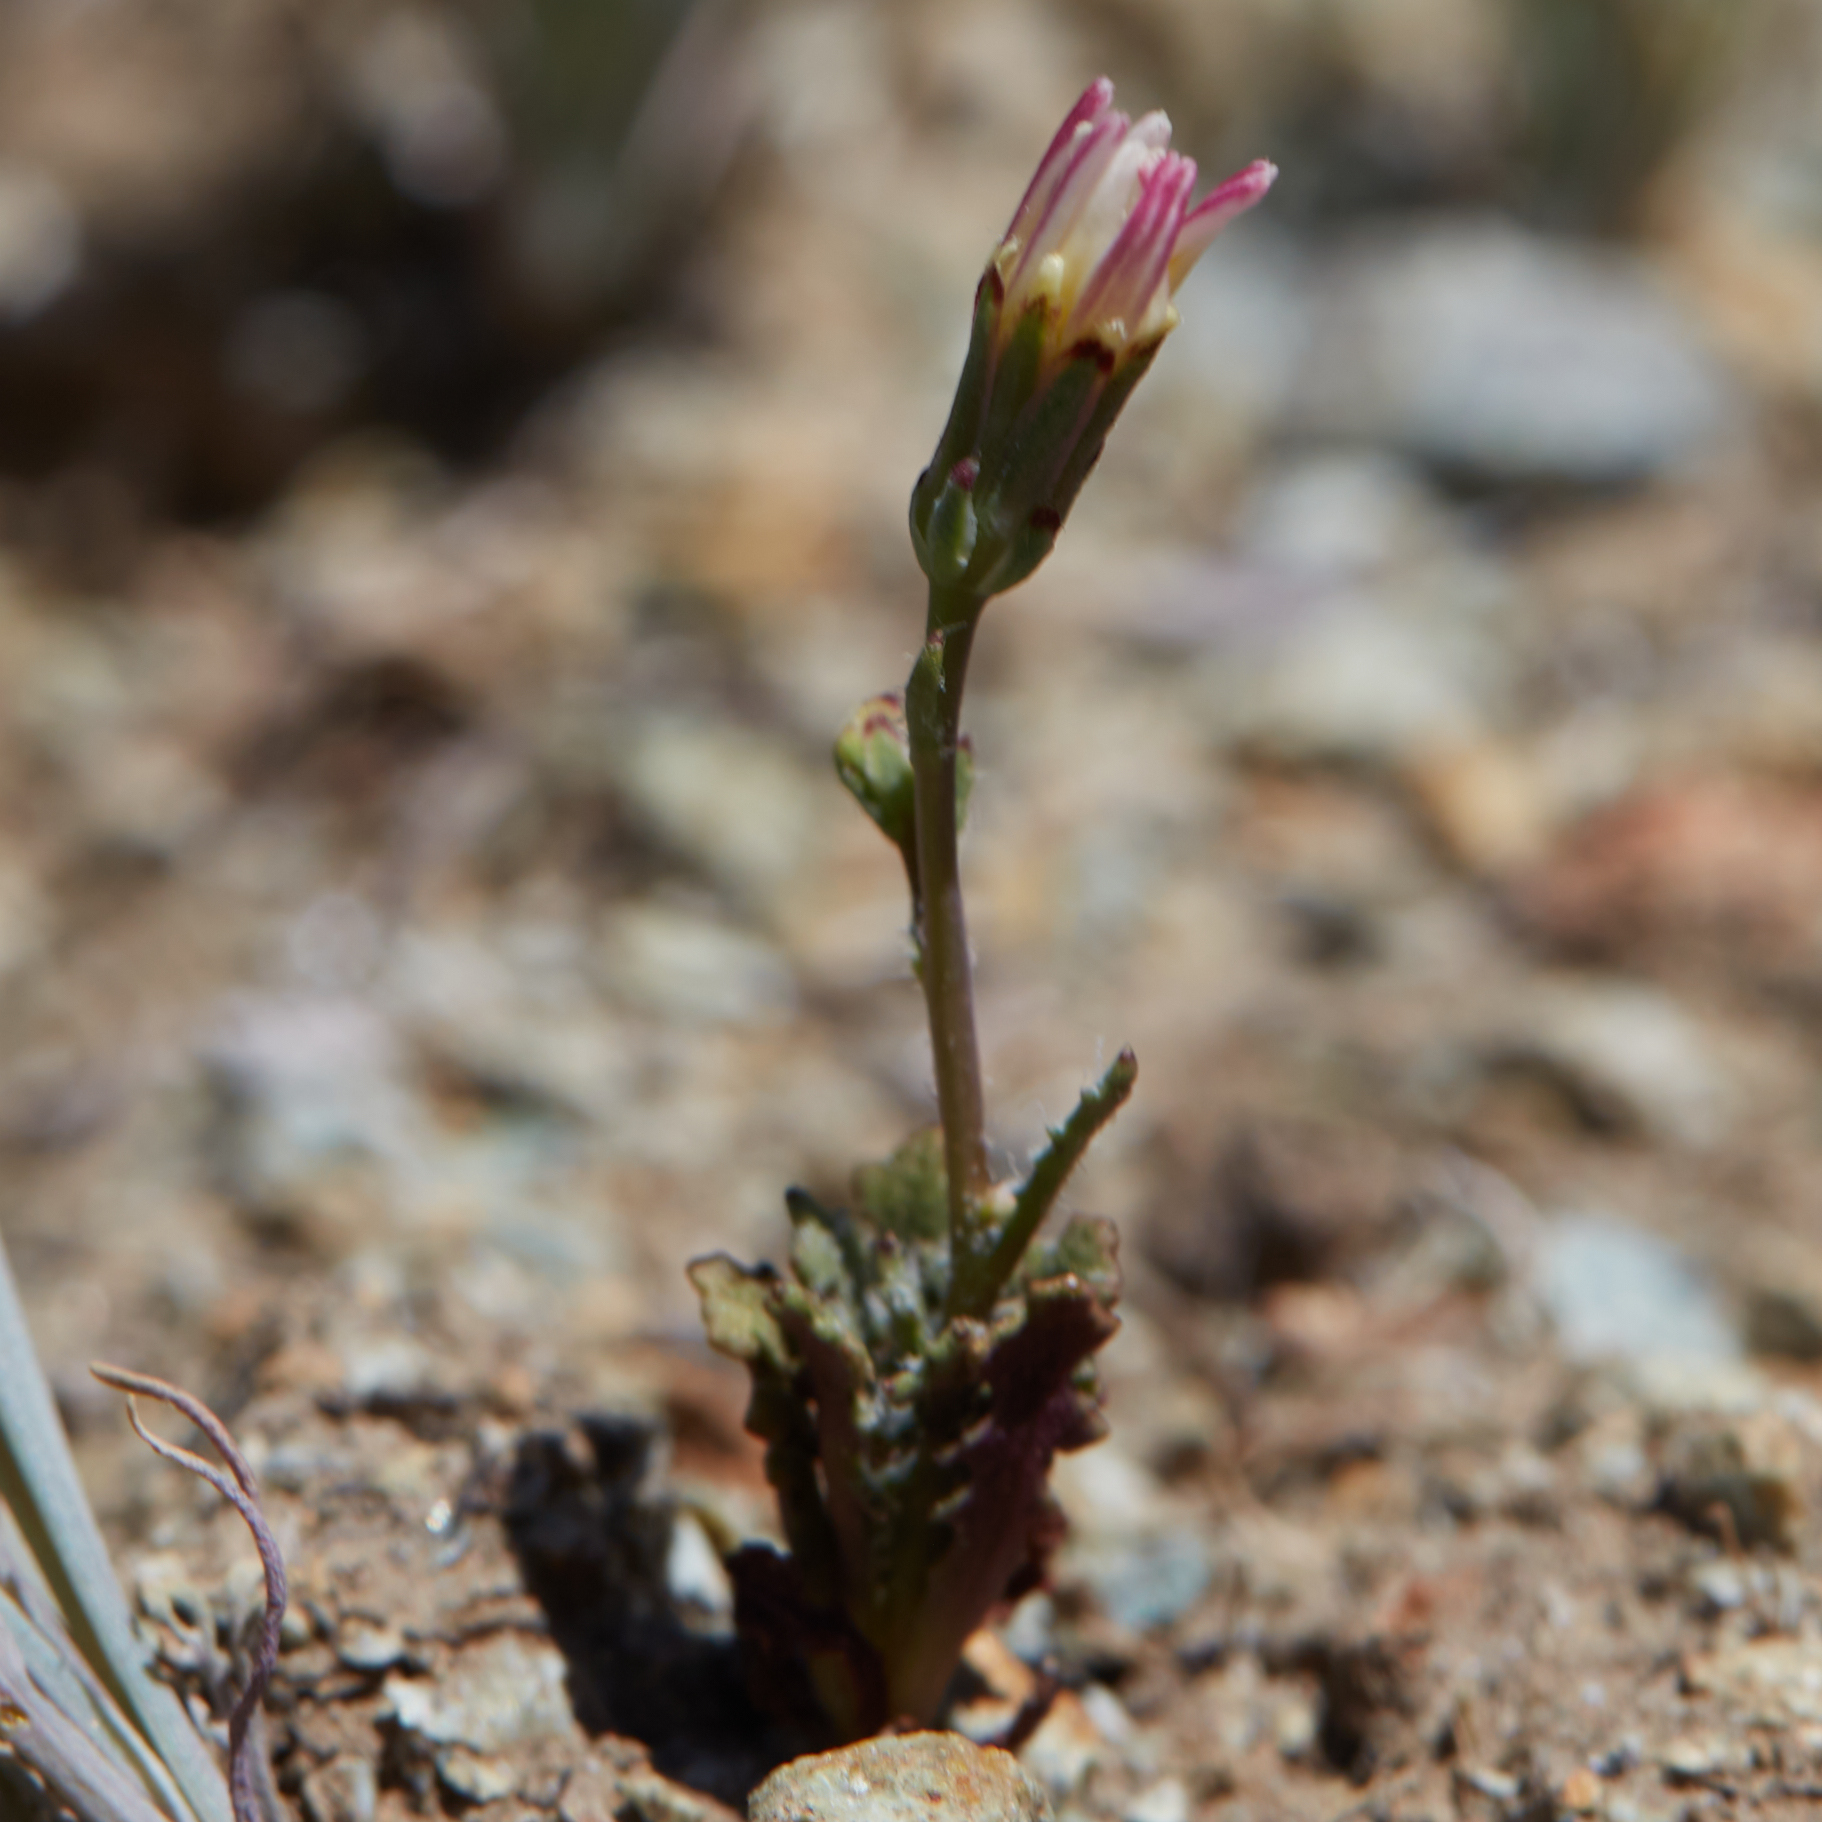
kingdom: Plantae
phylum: Tracheophyta
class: Magnoliopsida
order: Asterales
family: Asteraceae
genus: Malacothrix
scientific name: Malacothrix floccifera
